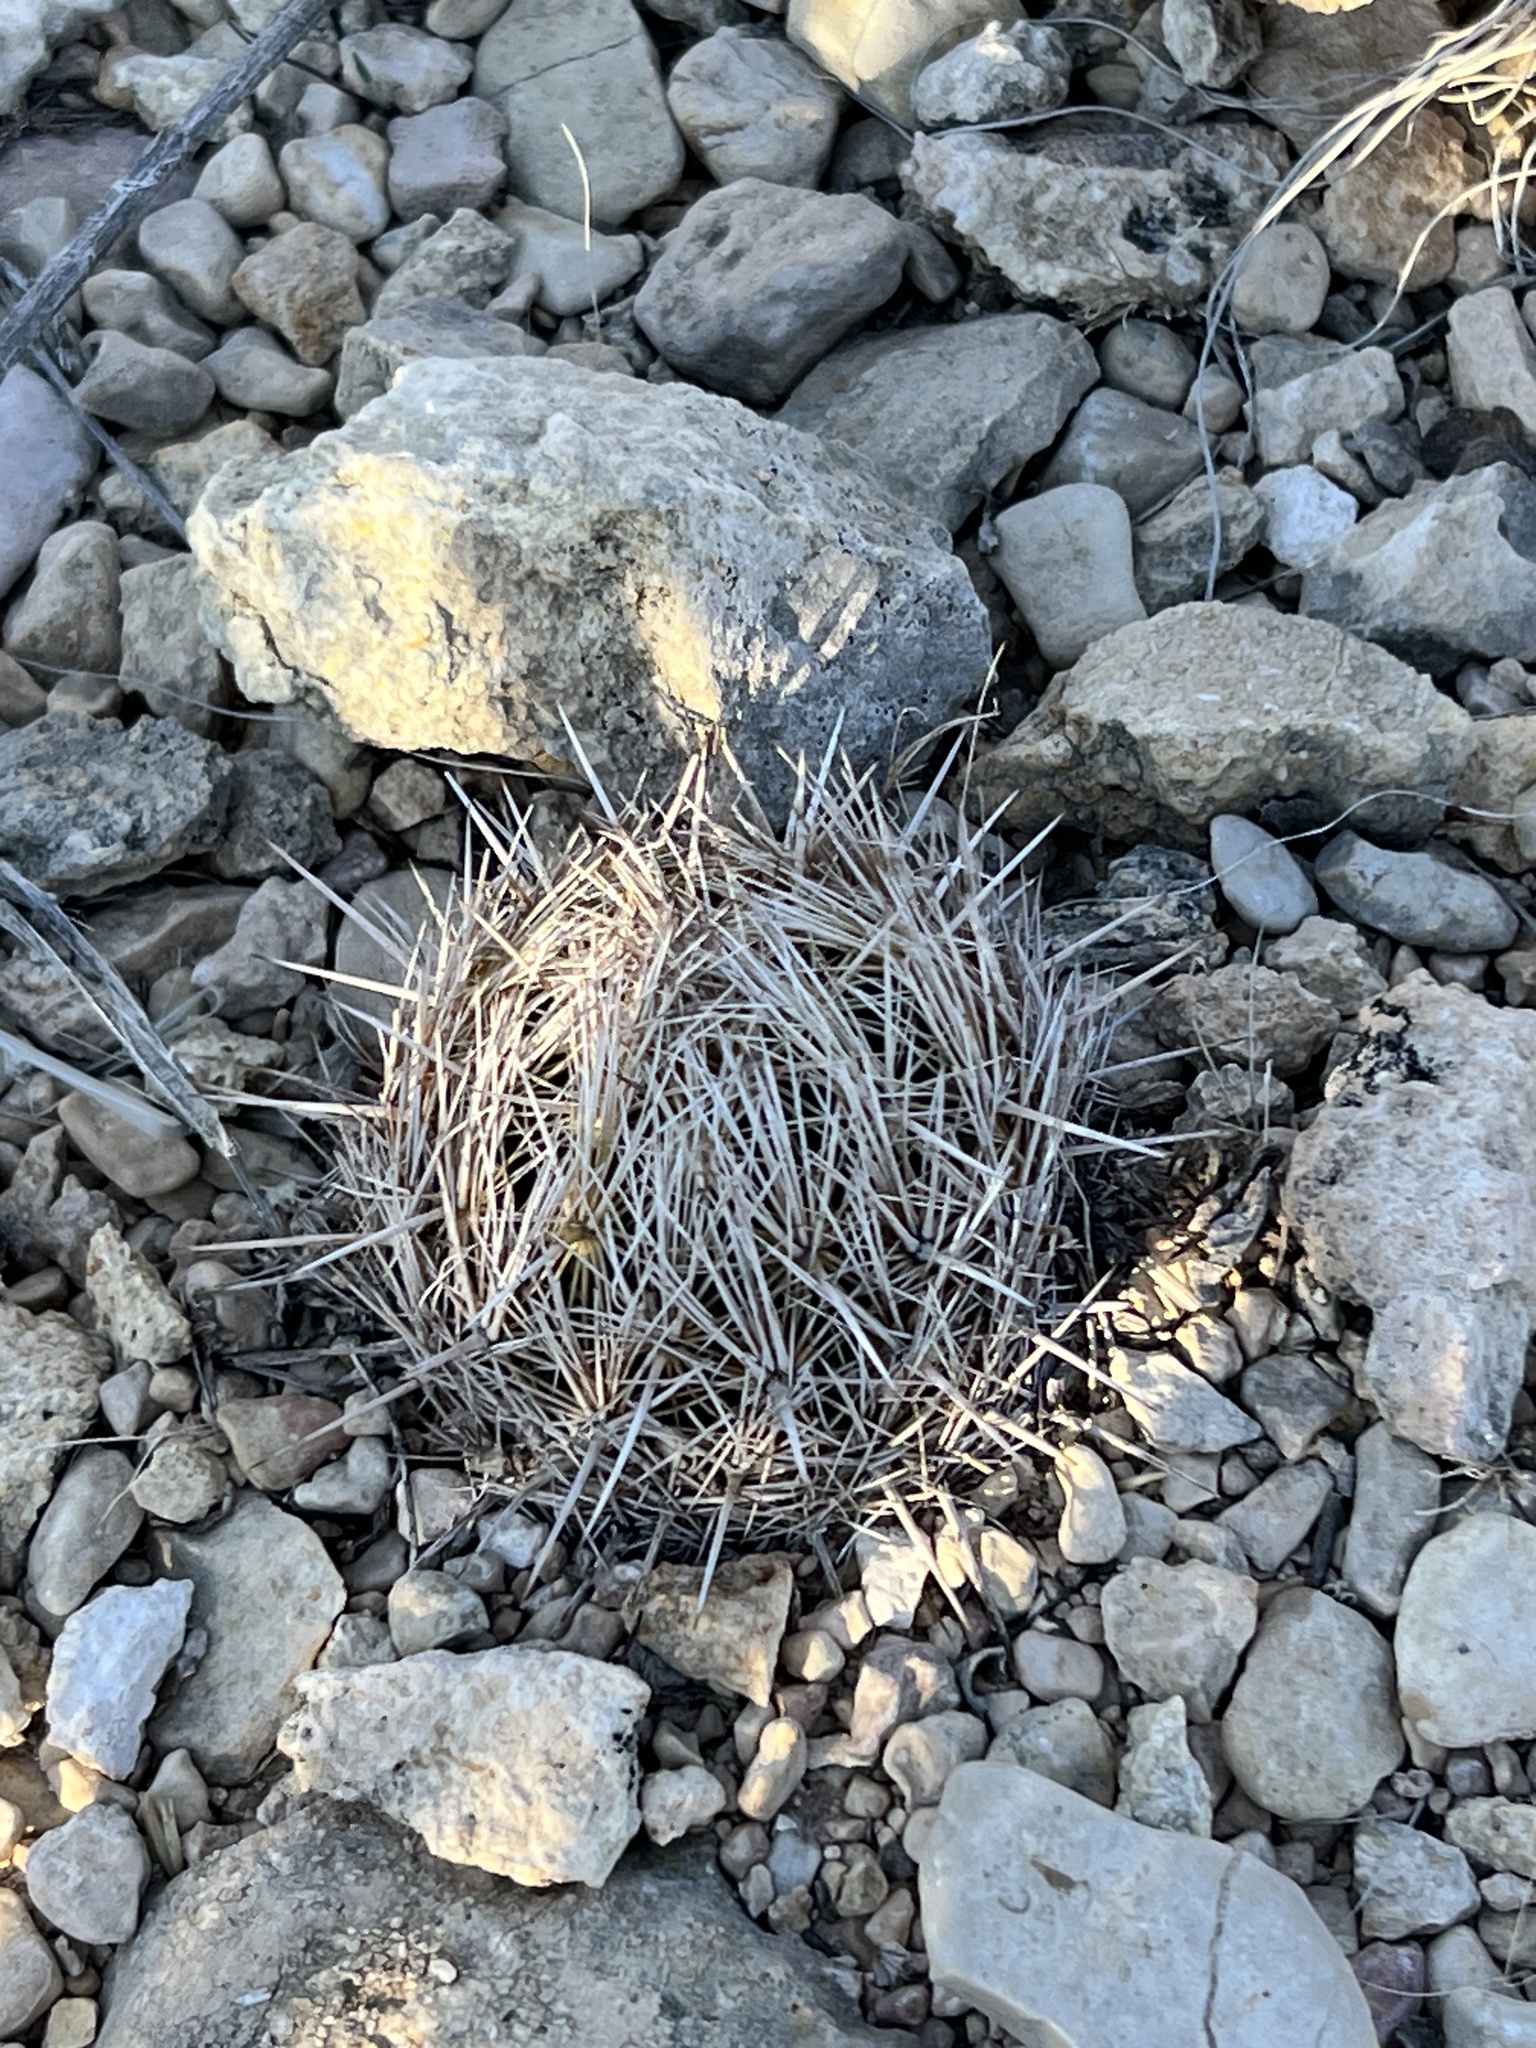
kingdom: Plantae
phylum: Tracheophyta
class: Magnoliopsida
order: Caryophyllales
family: Cactaceae
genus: Coryphantha
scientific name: Coryphantha echinus
